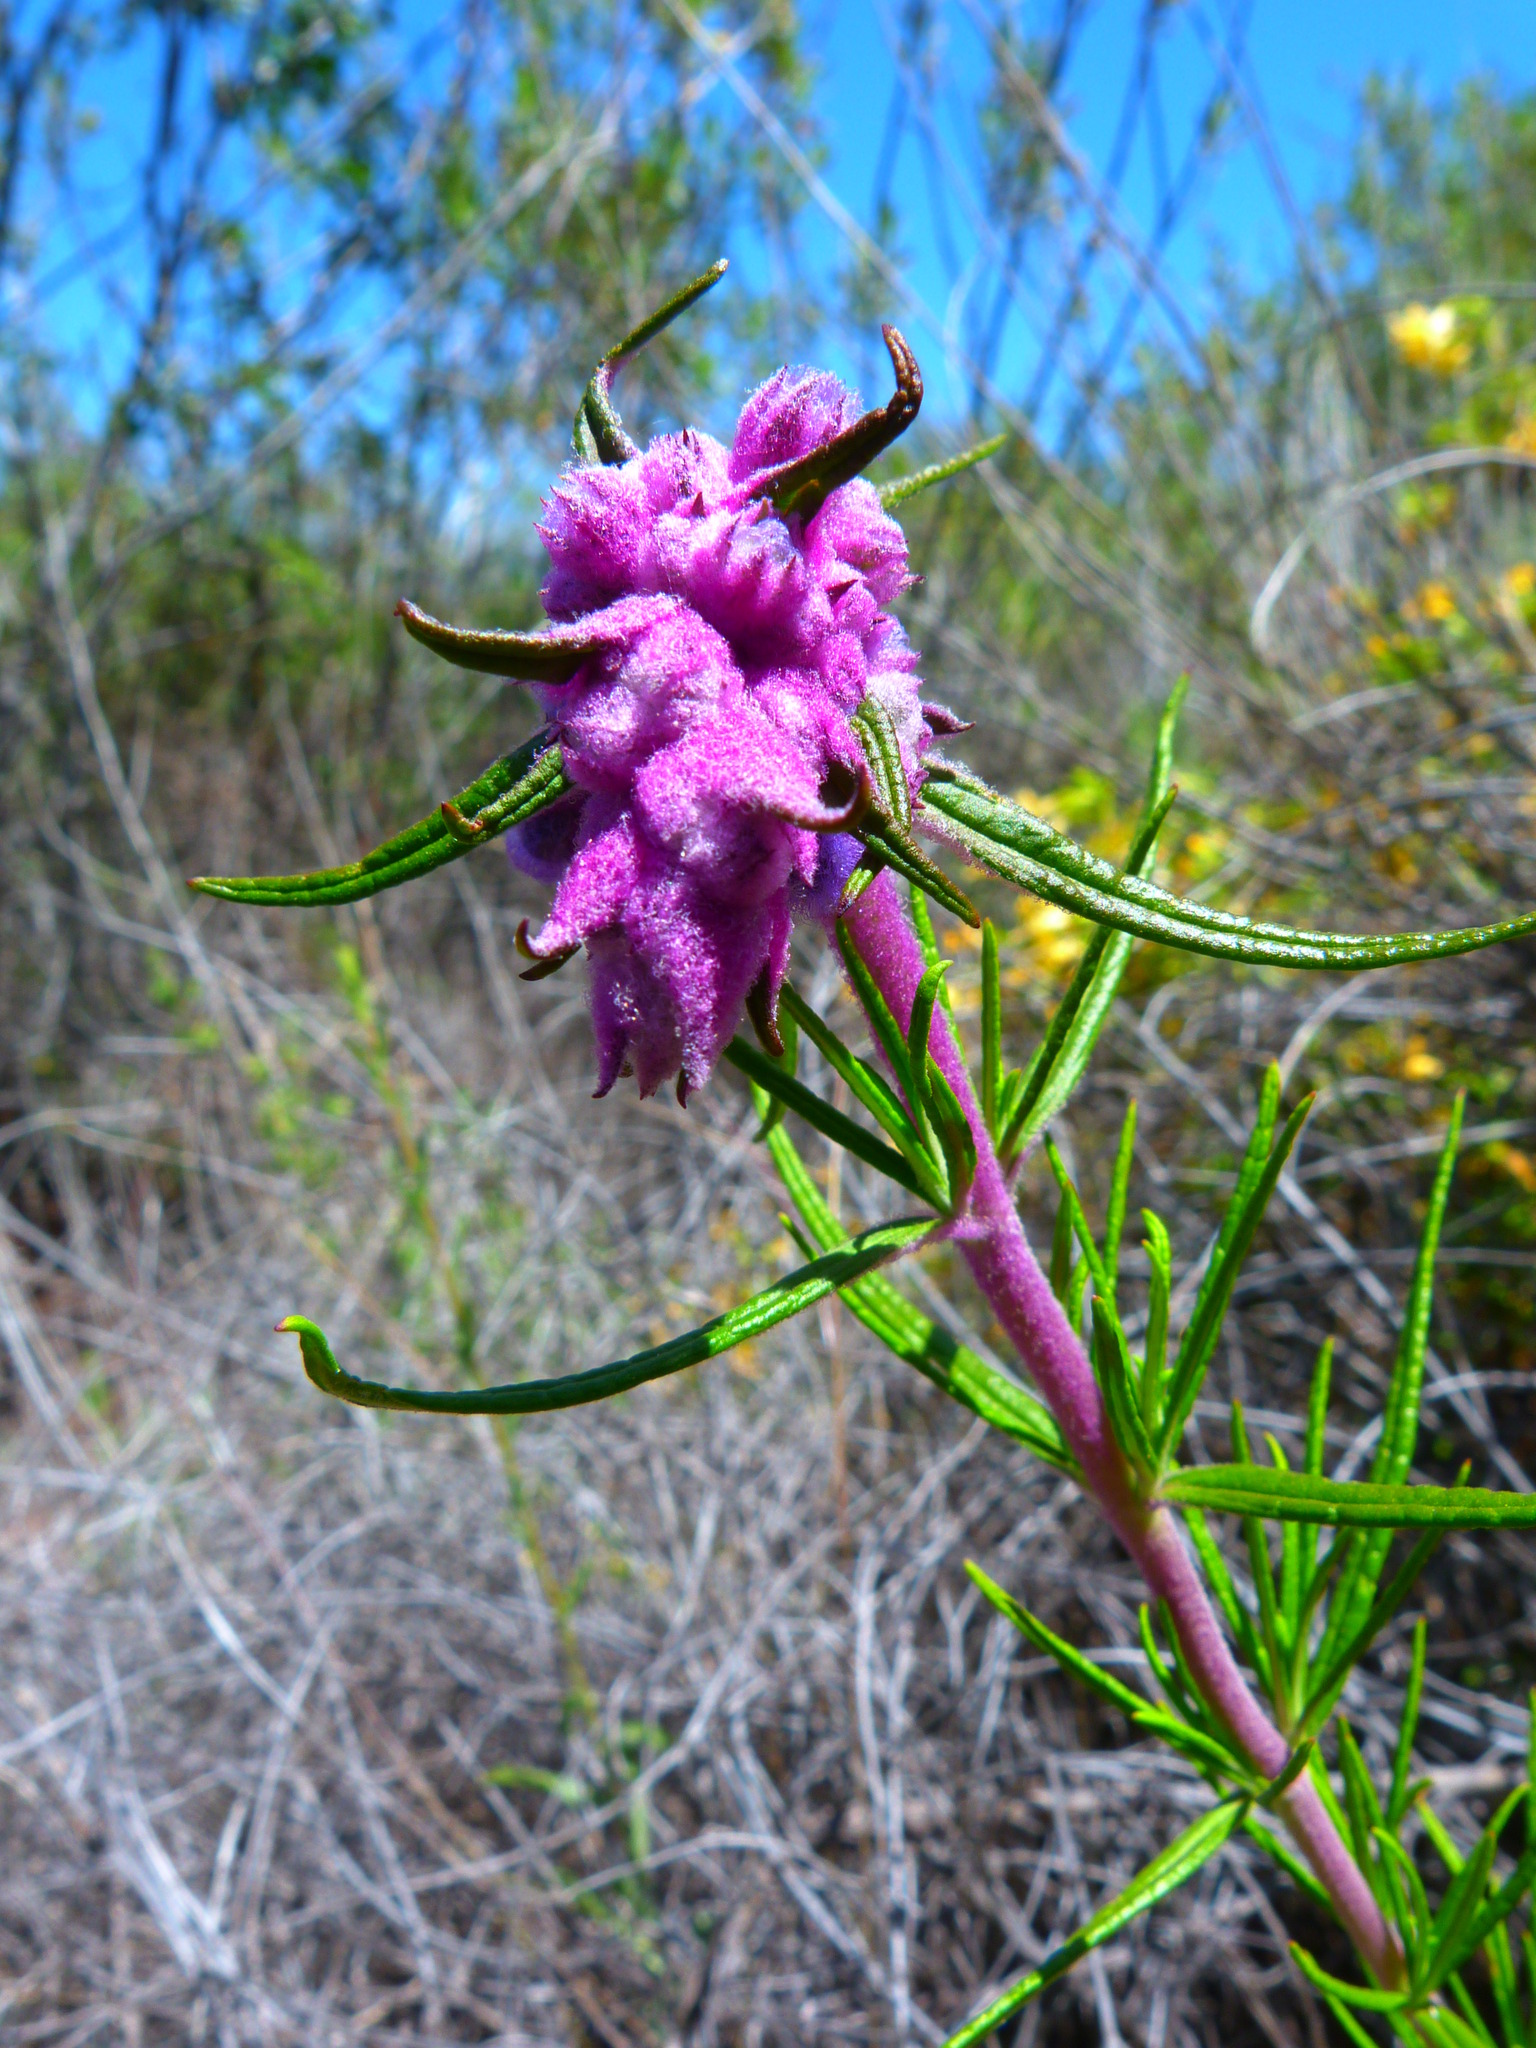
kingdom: Plantae
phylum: Tracheophyta
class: Magnoliopsida
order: Lamiales
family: Lamiaceae
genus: Trichostema
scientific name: Trichostema lanatum
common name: Woolly bluecurls
